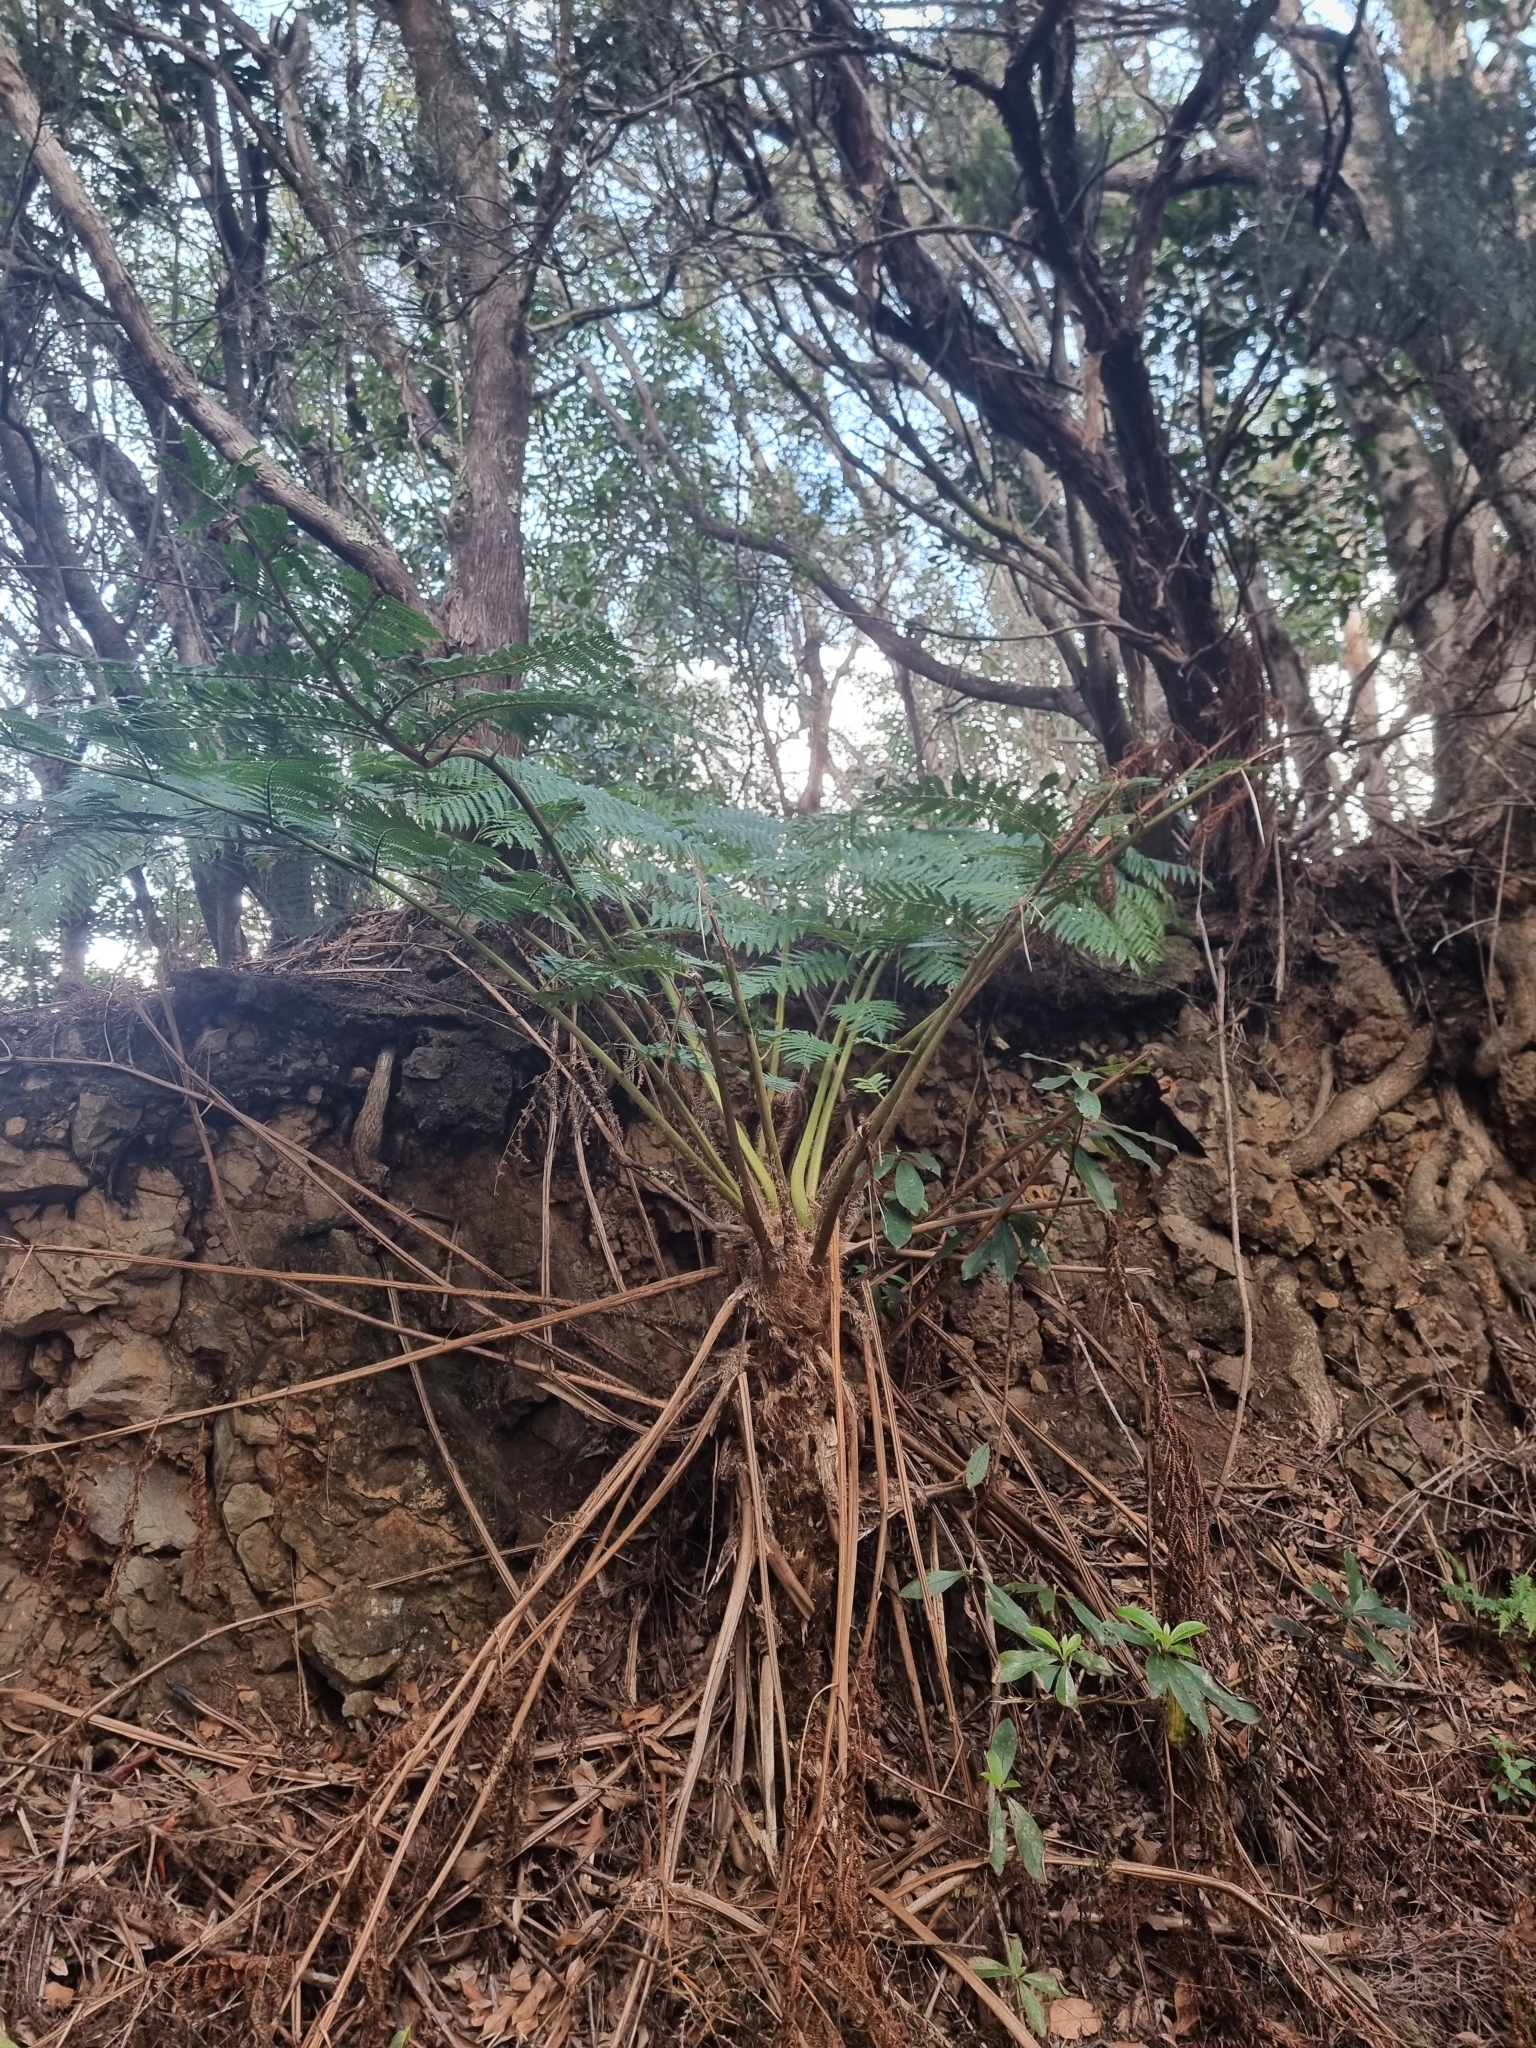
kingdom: Plantae
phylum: Tracheophyta
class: Polypodiopsida
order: Cyatheales
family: Cyatheaceae
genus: Sphaeropteris
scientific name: Sphaeropteris cooperi
